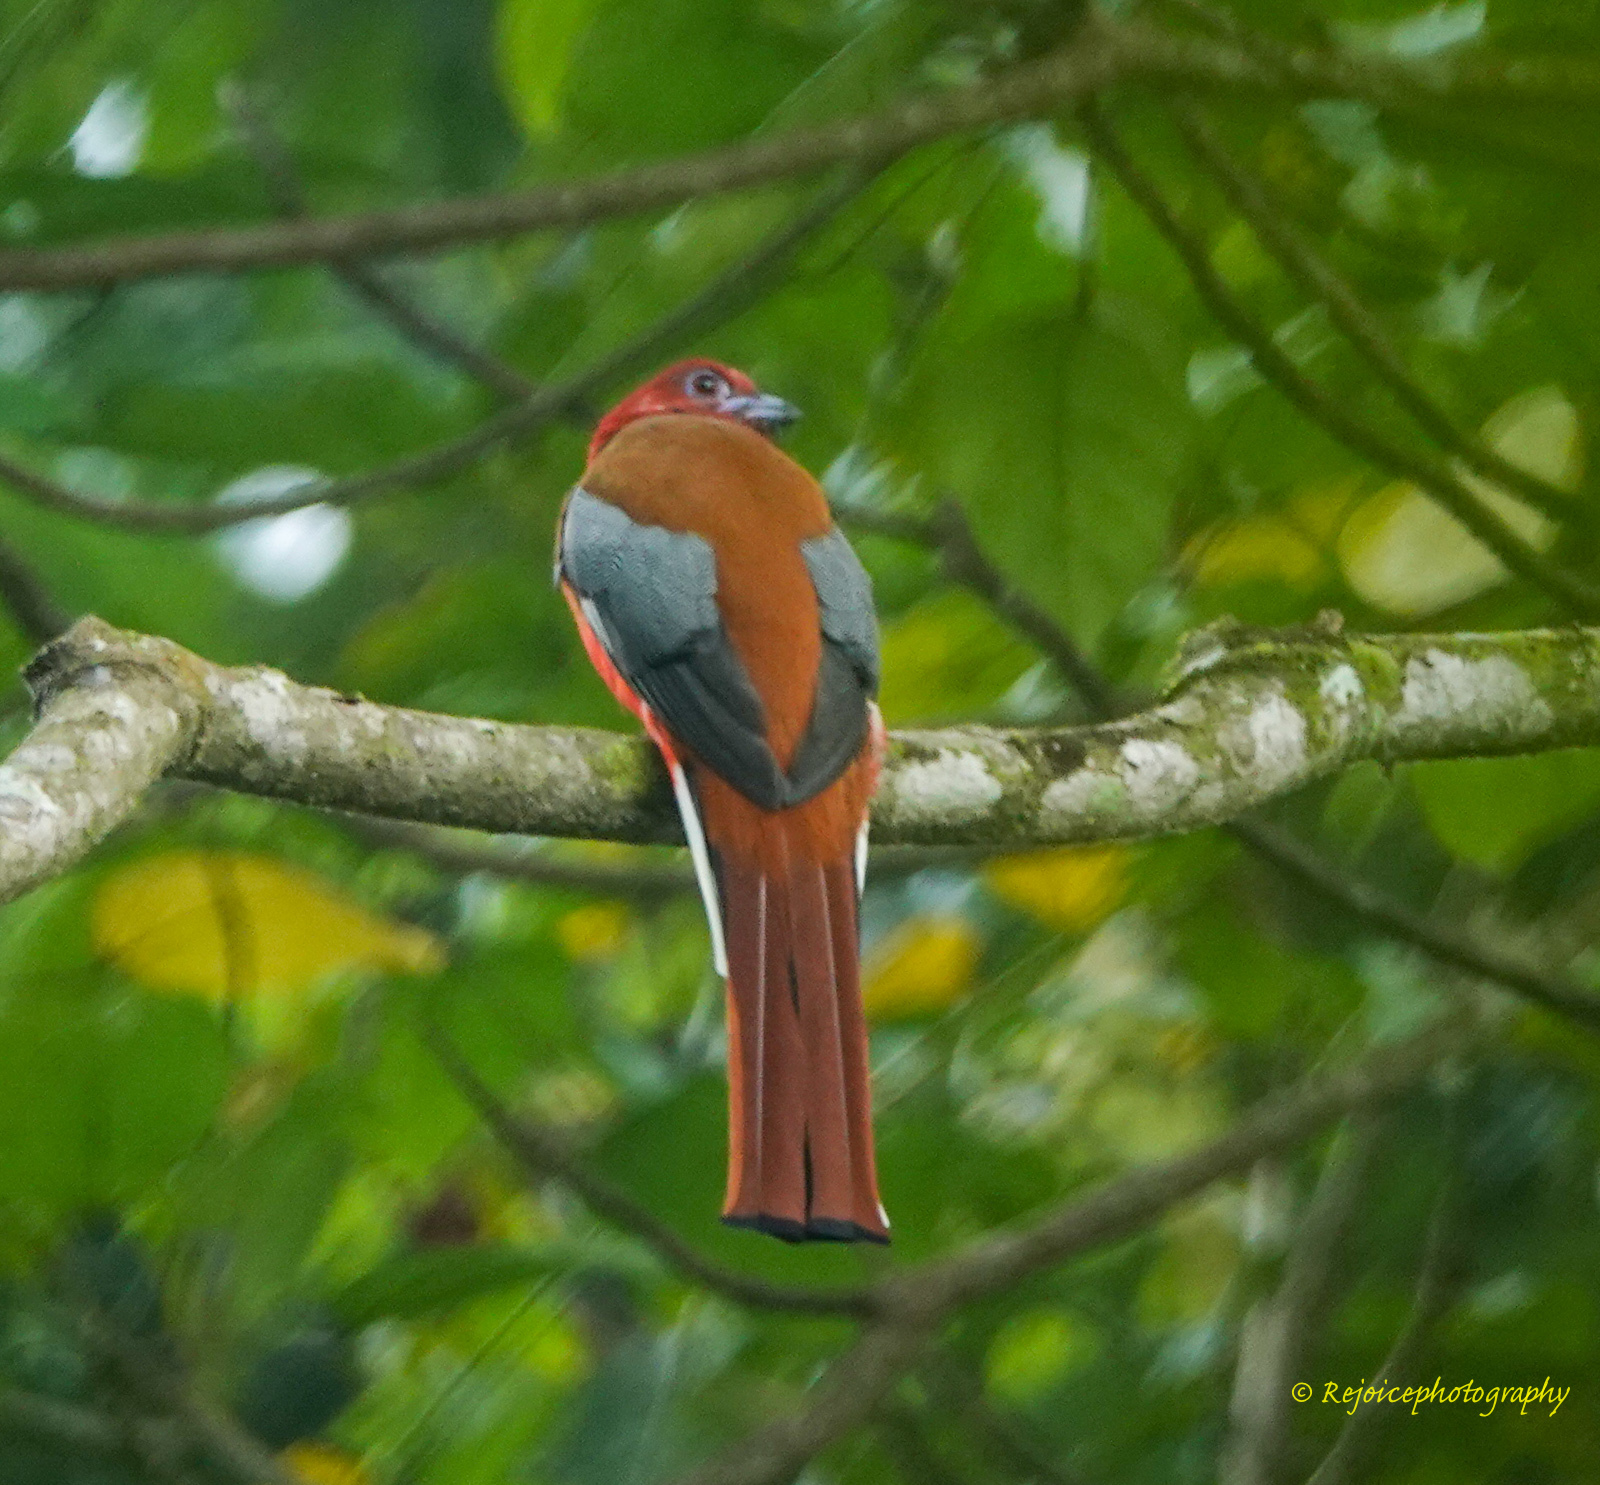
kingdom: Animalia
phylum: Chordata
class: Aves
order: Trogoniformes
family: Trogonidae
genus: Harpactes
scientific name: Harpactes erythrocephalus
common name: Red-headed trogon
